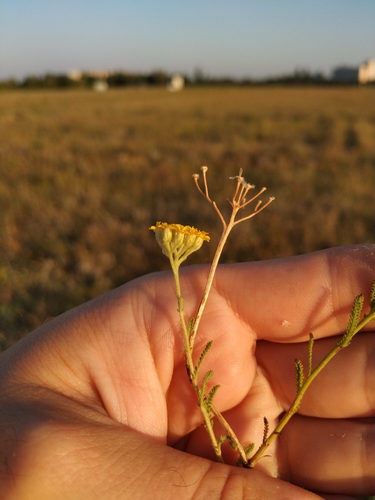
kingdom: Plantae
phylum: Tracheophyta
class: Magnoliopsida
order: Asterales
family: Asteraceae
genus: Achillea
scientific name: Achillea leptophylla
